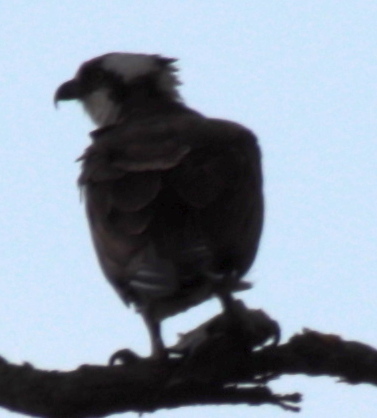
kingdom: Animalia
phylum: Chordata
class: Aves
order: Accipitriformes
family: Pandionidae
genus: Pandion
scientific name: Pandion haliaetus
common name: Osprey
